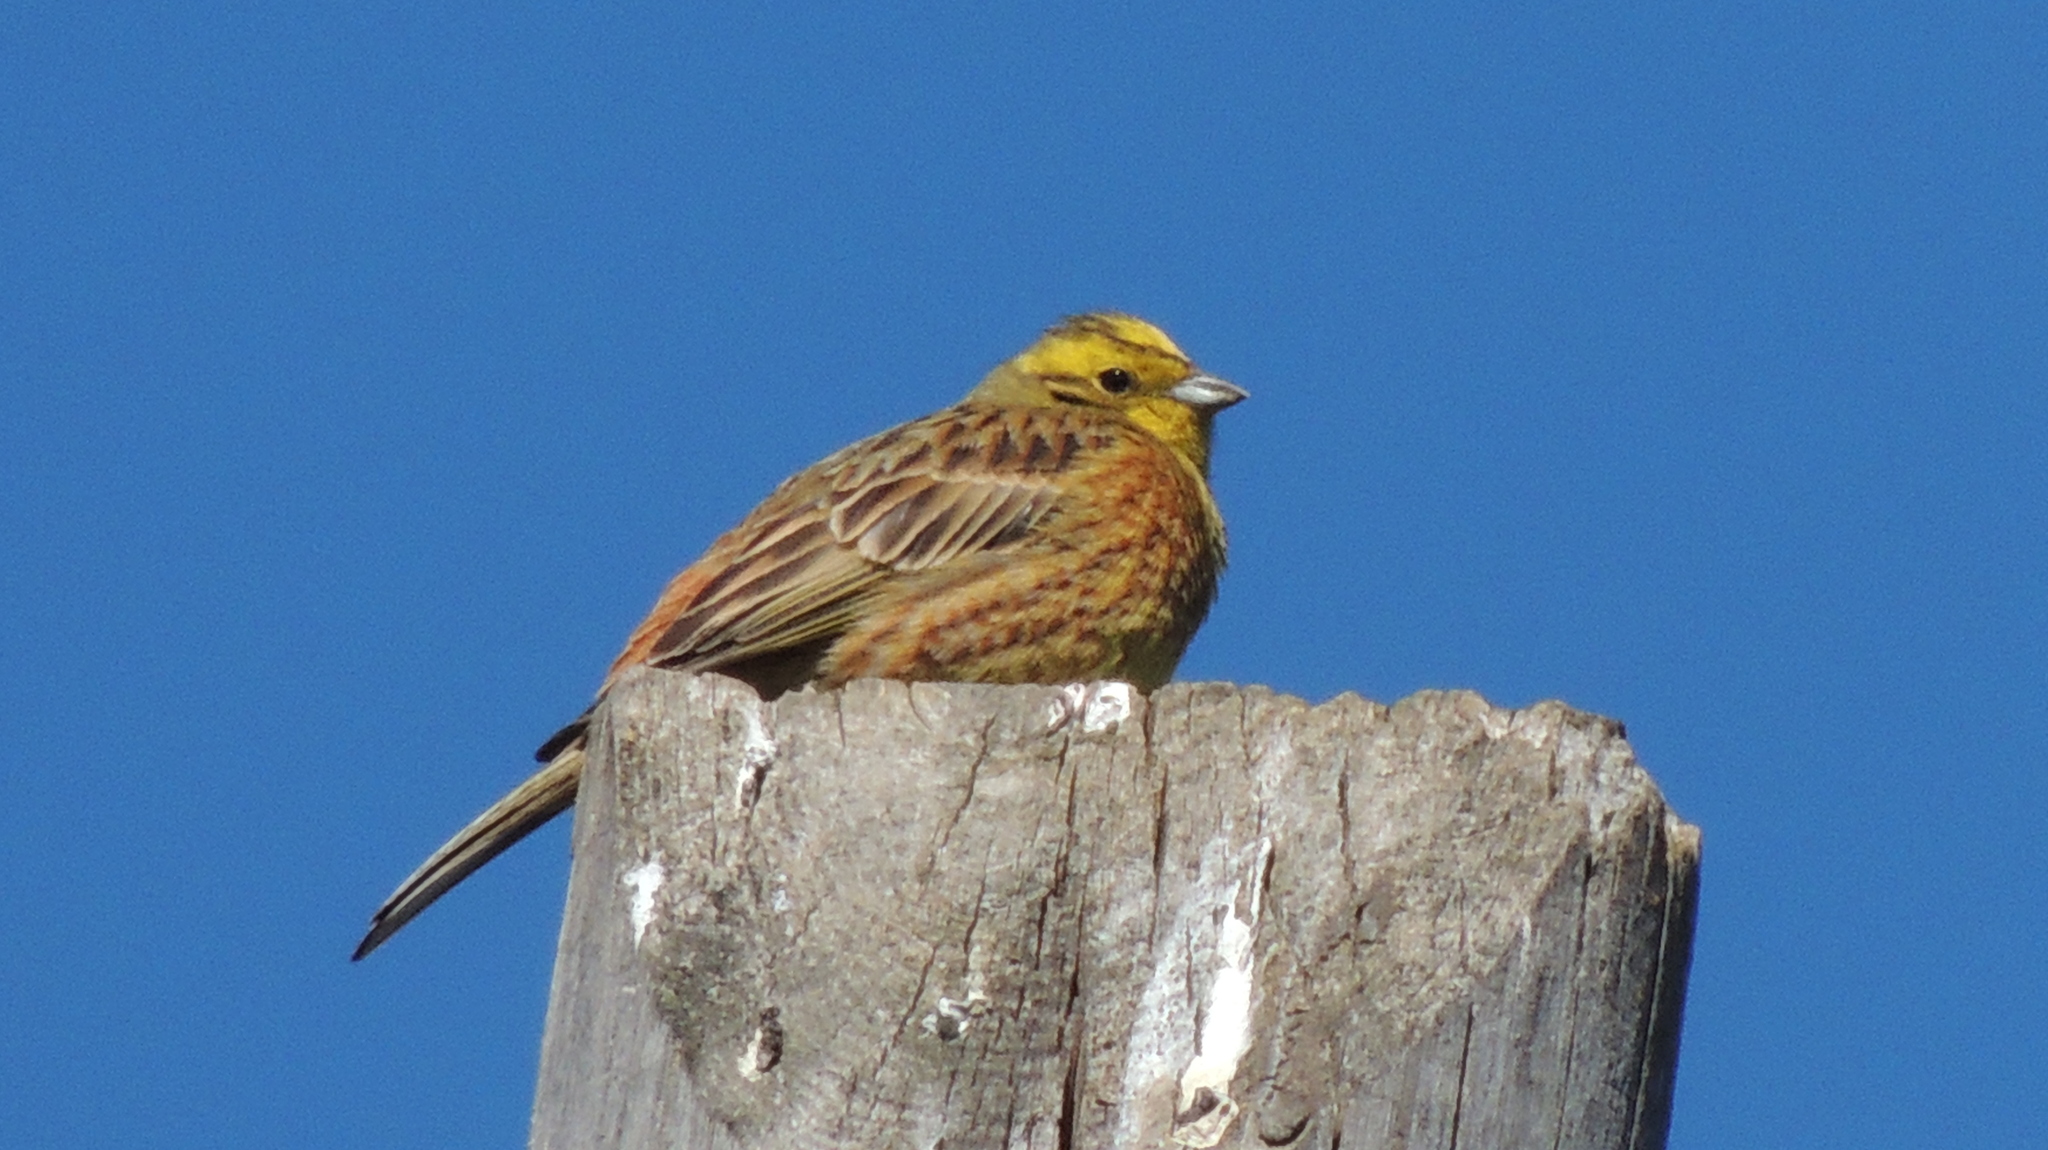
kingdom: Animalia
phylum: Chordata
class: Aves
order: Passeriformes
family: Emberizidae
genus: Emberiza
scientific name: Emberiza citrinella
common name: Yellowhammer
